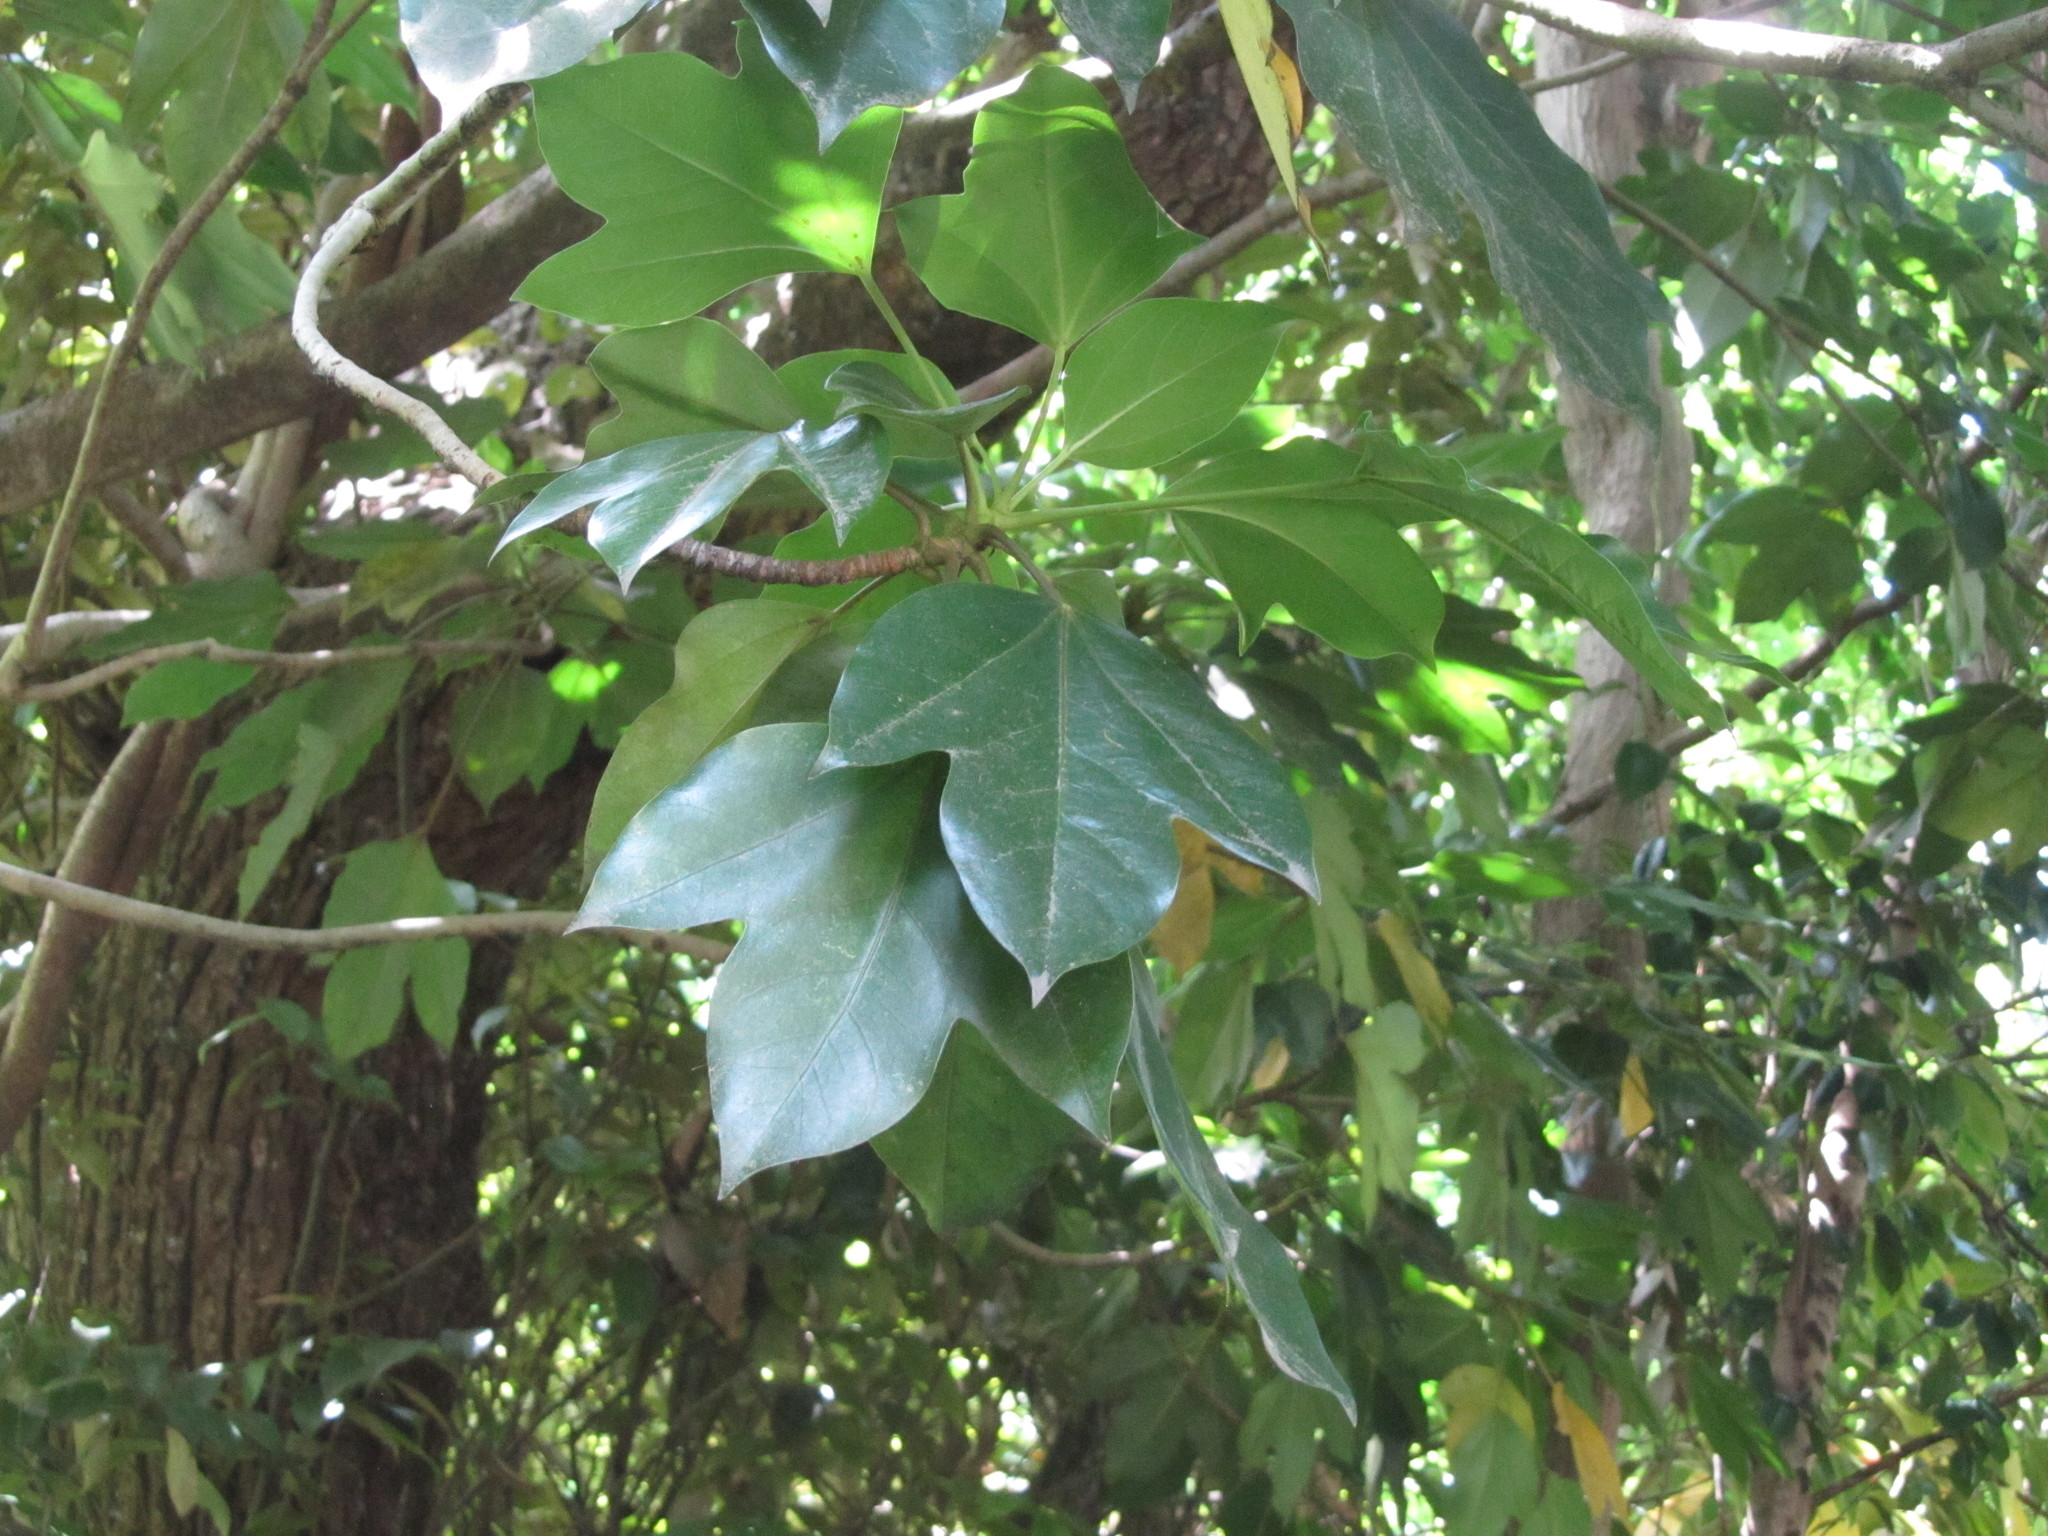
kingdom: Plantae
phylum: Tracheophyta
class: Magnoliopsida
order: Apiales
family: Araliaceae
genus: Dendropanax
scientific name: Dendropanax trifidus
